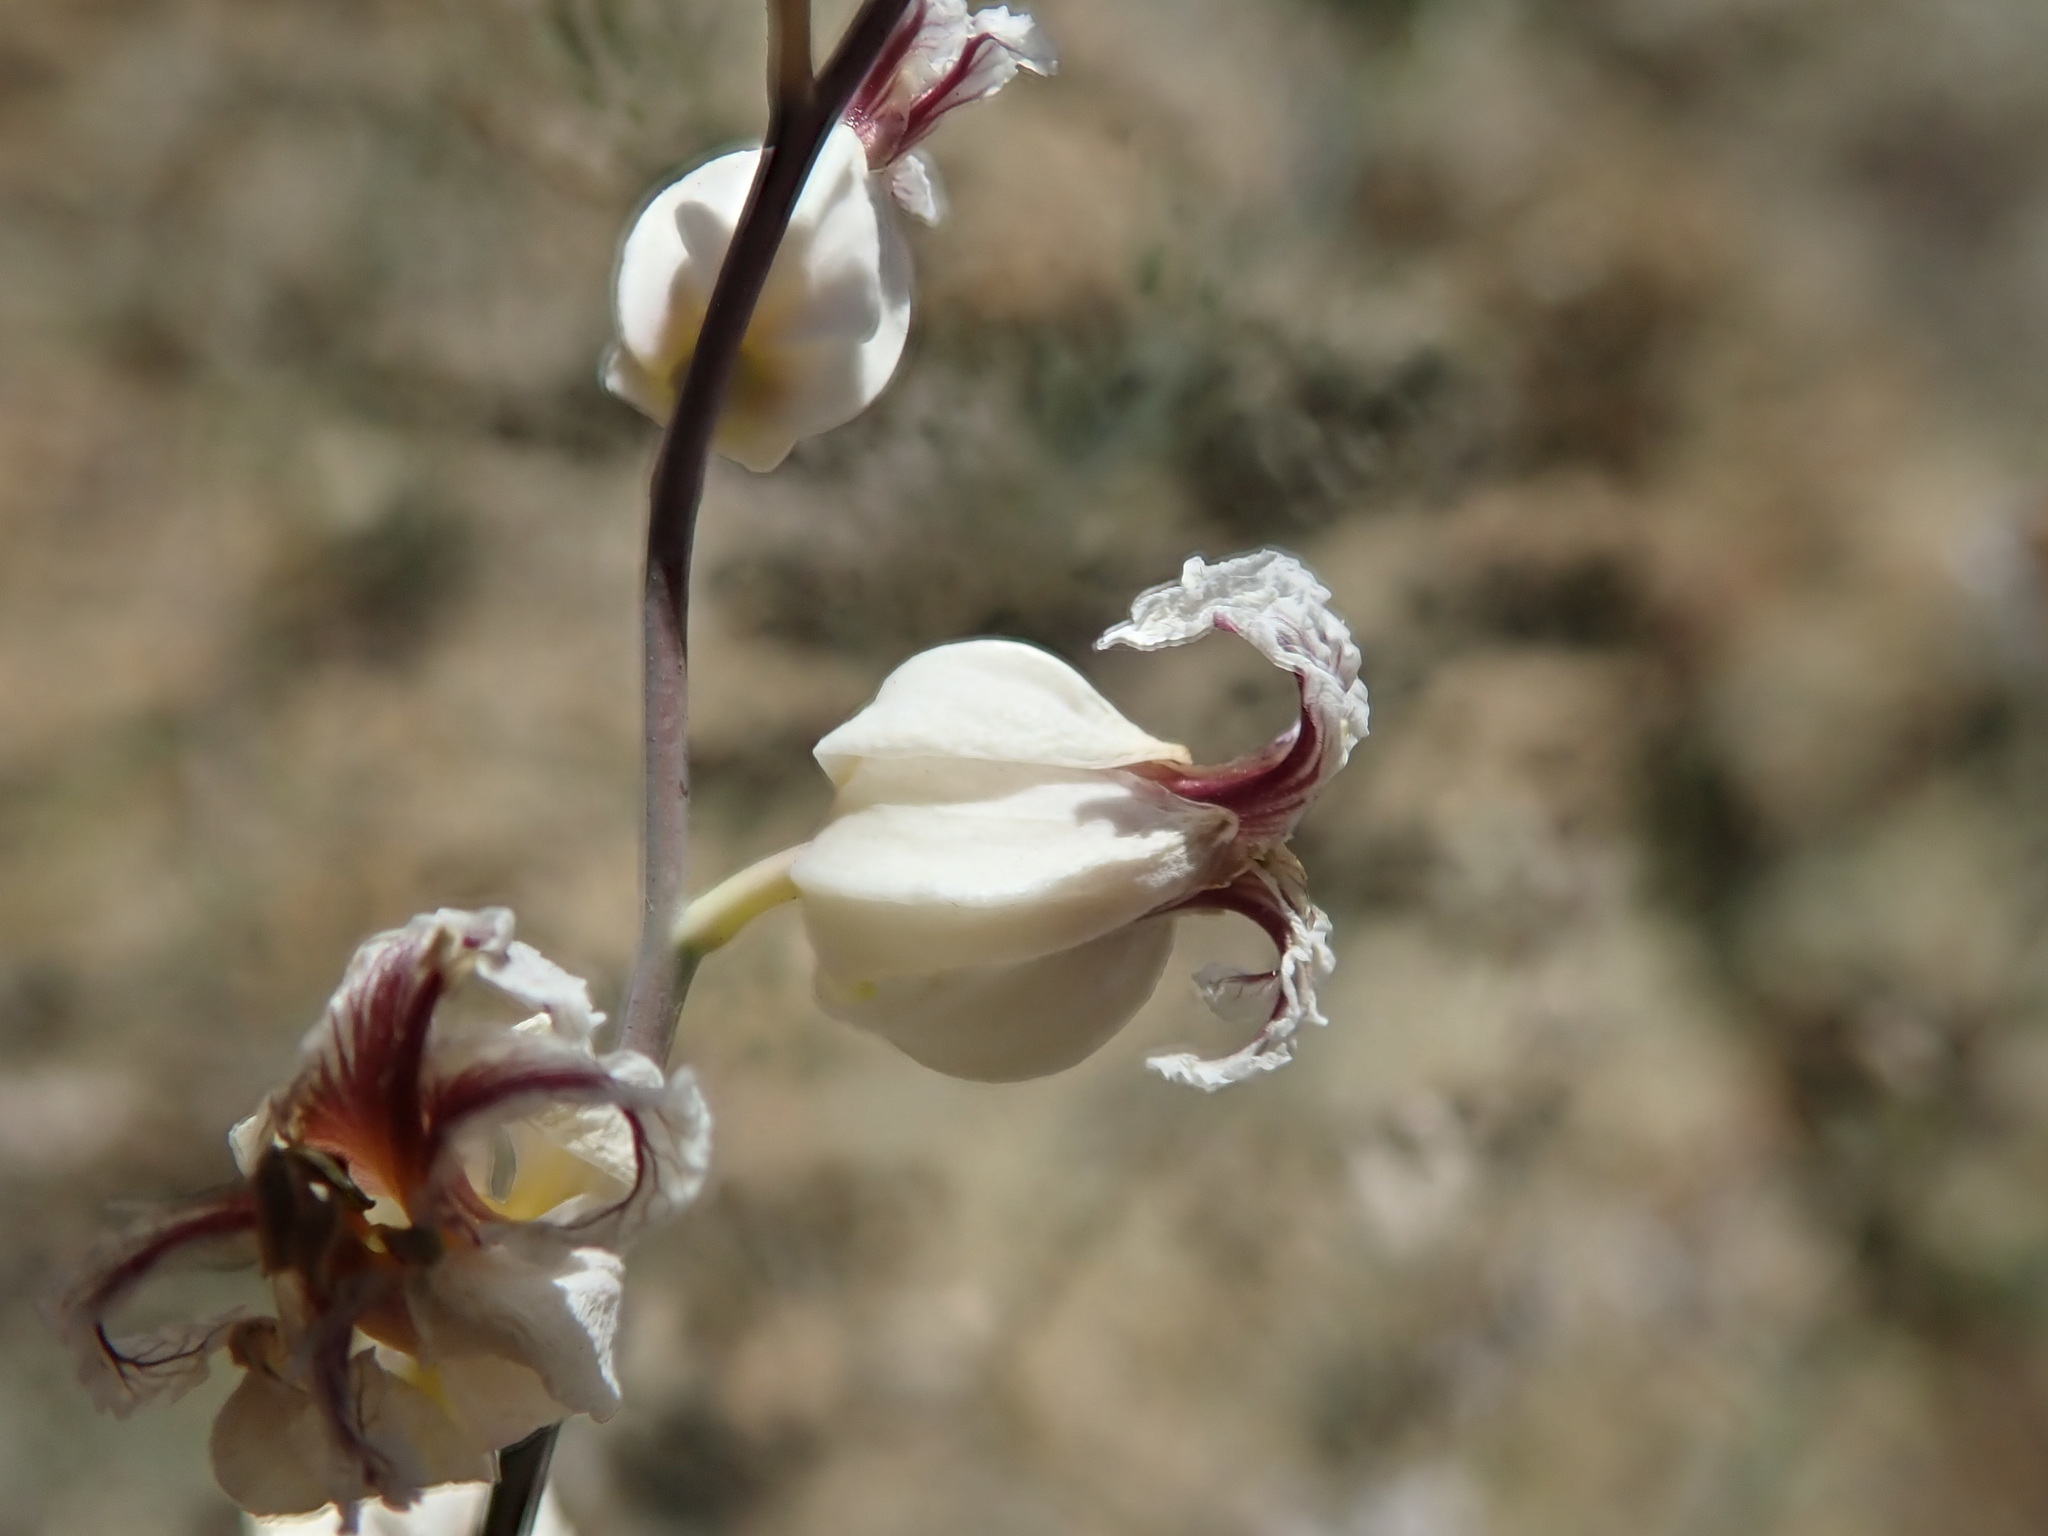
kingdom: Plantae
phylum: Tracheophyta
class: Magnoliopsida
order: Brassicales
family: Brassicaceae
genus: Streptanthus
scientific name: Streptanthus glandulosus
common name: Jewel-flower
